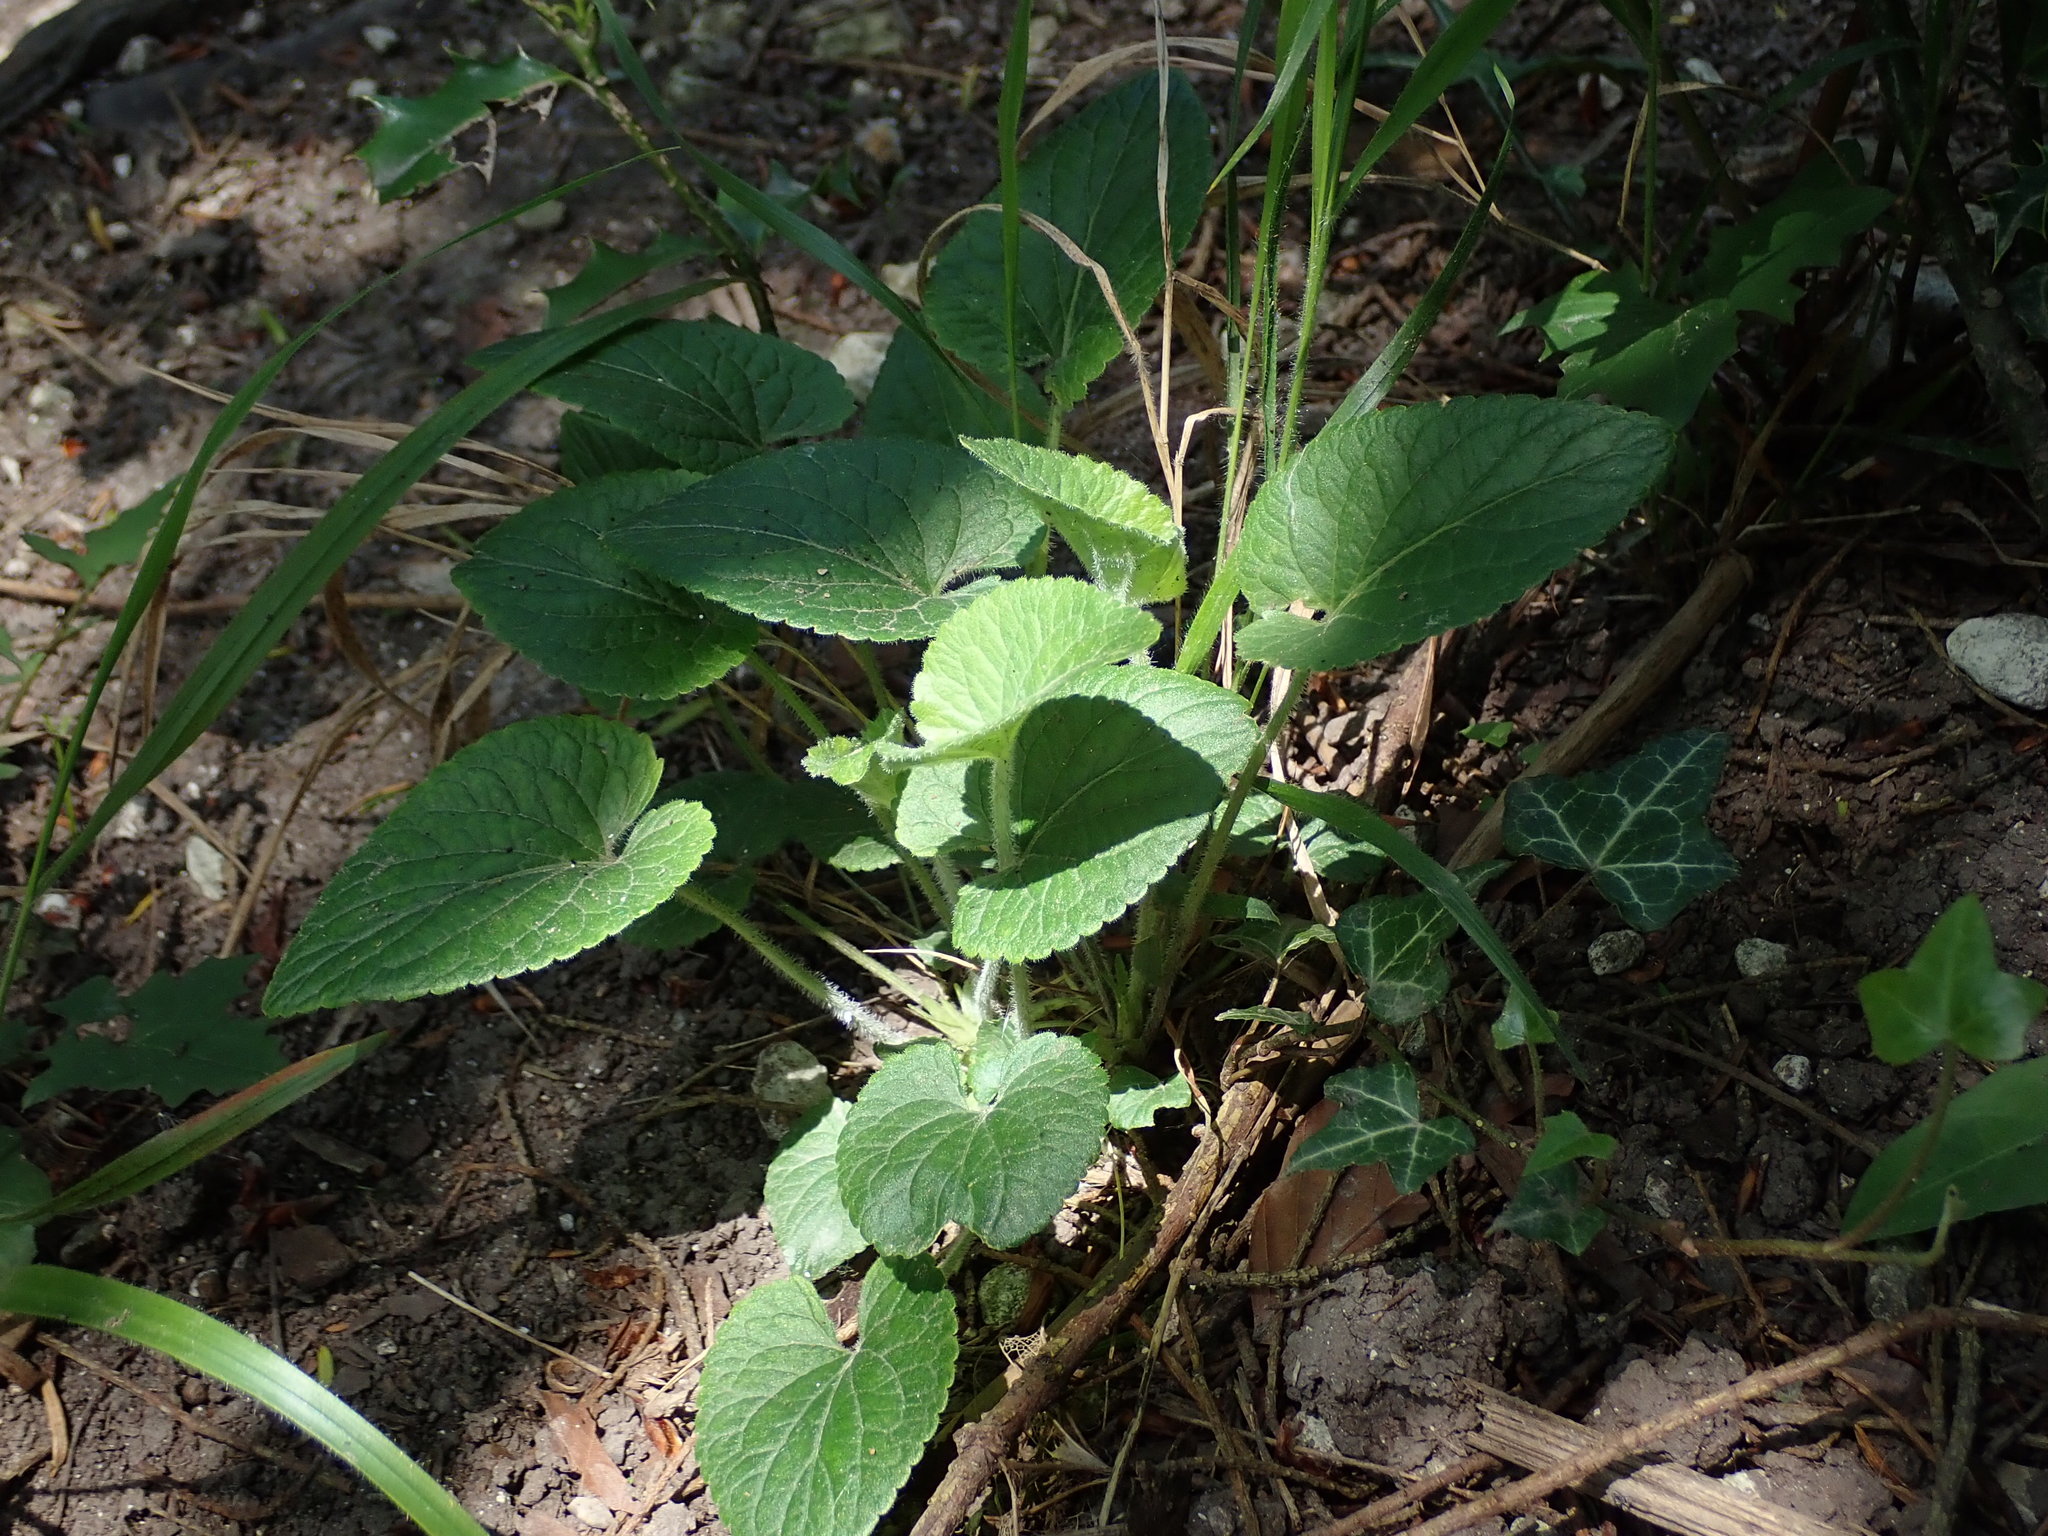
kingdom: Plantae
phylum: Tracheophyta
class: Magnoliopsida
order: Malpighiales
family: Violaceae
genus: Viola
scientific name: Viola hirta
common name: Hairy violet
